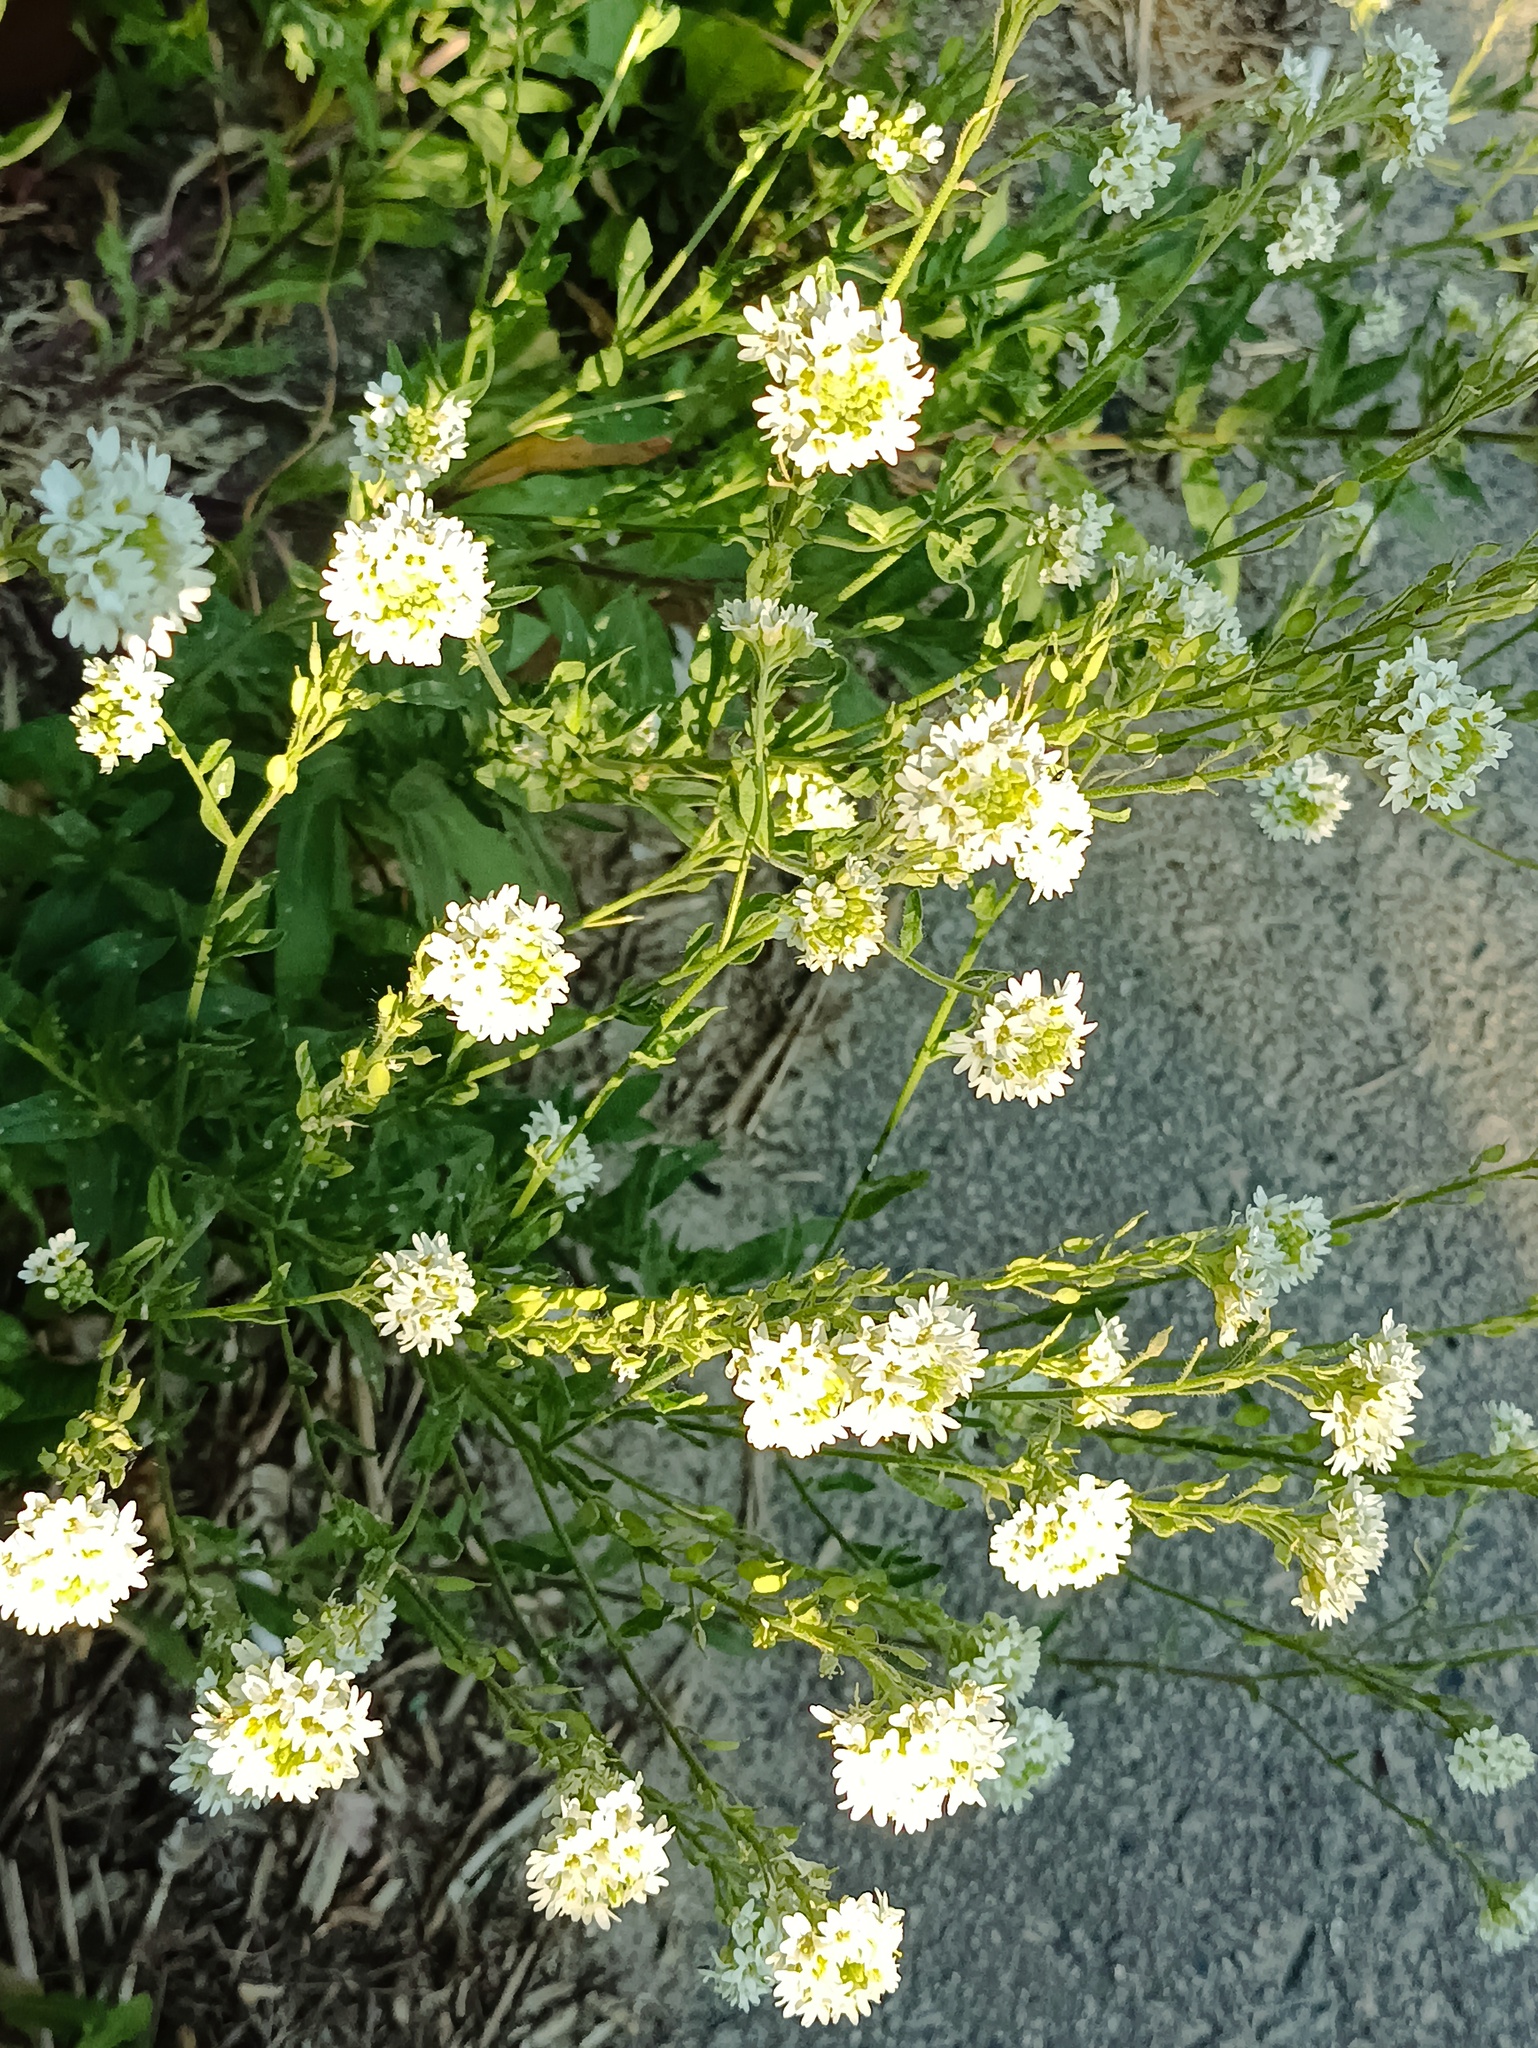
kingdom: Plantae
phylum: Tracheophyta
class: Magnoliopsida
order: Brassicales
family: Brassicaceae
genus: Berteroa
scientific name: Berteroa incana
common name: Hoary alison
